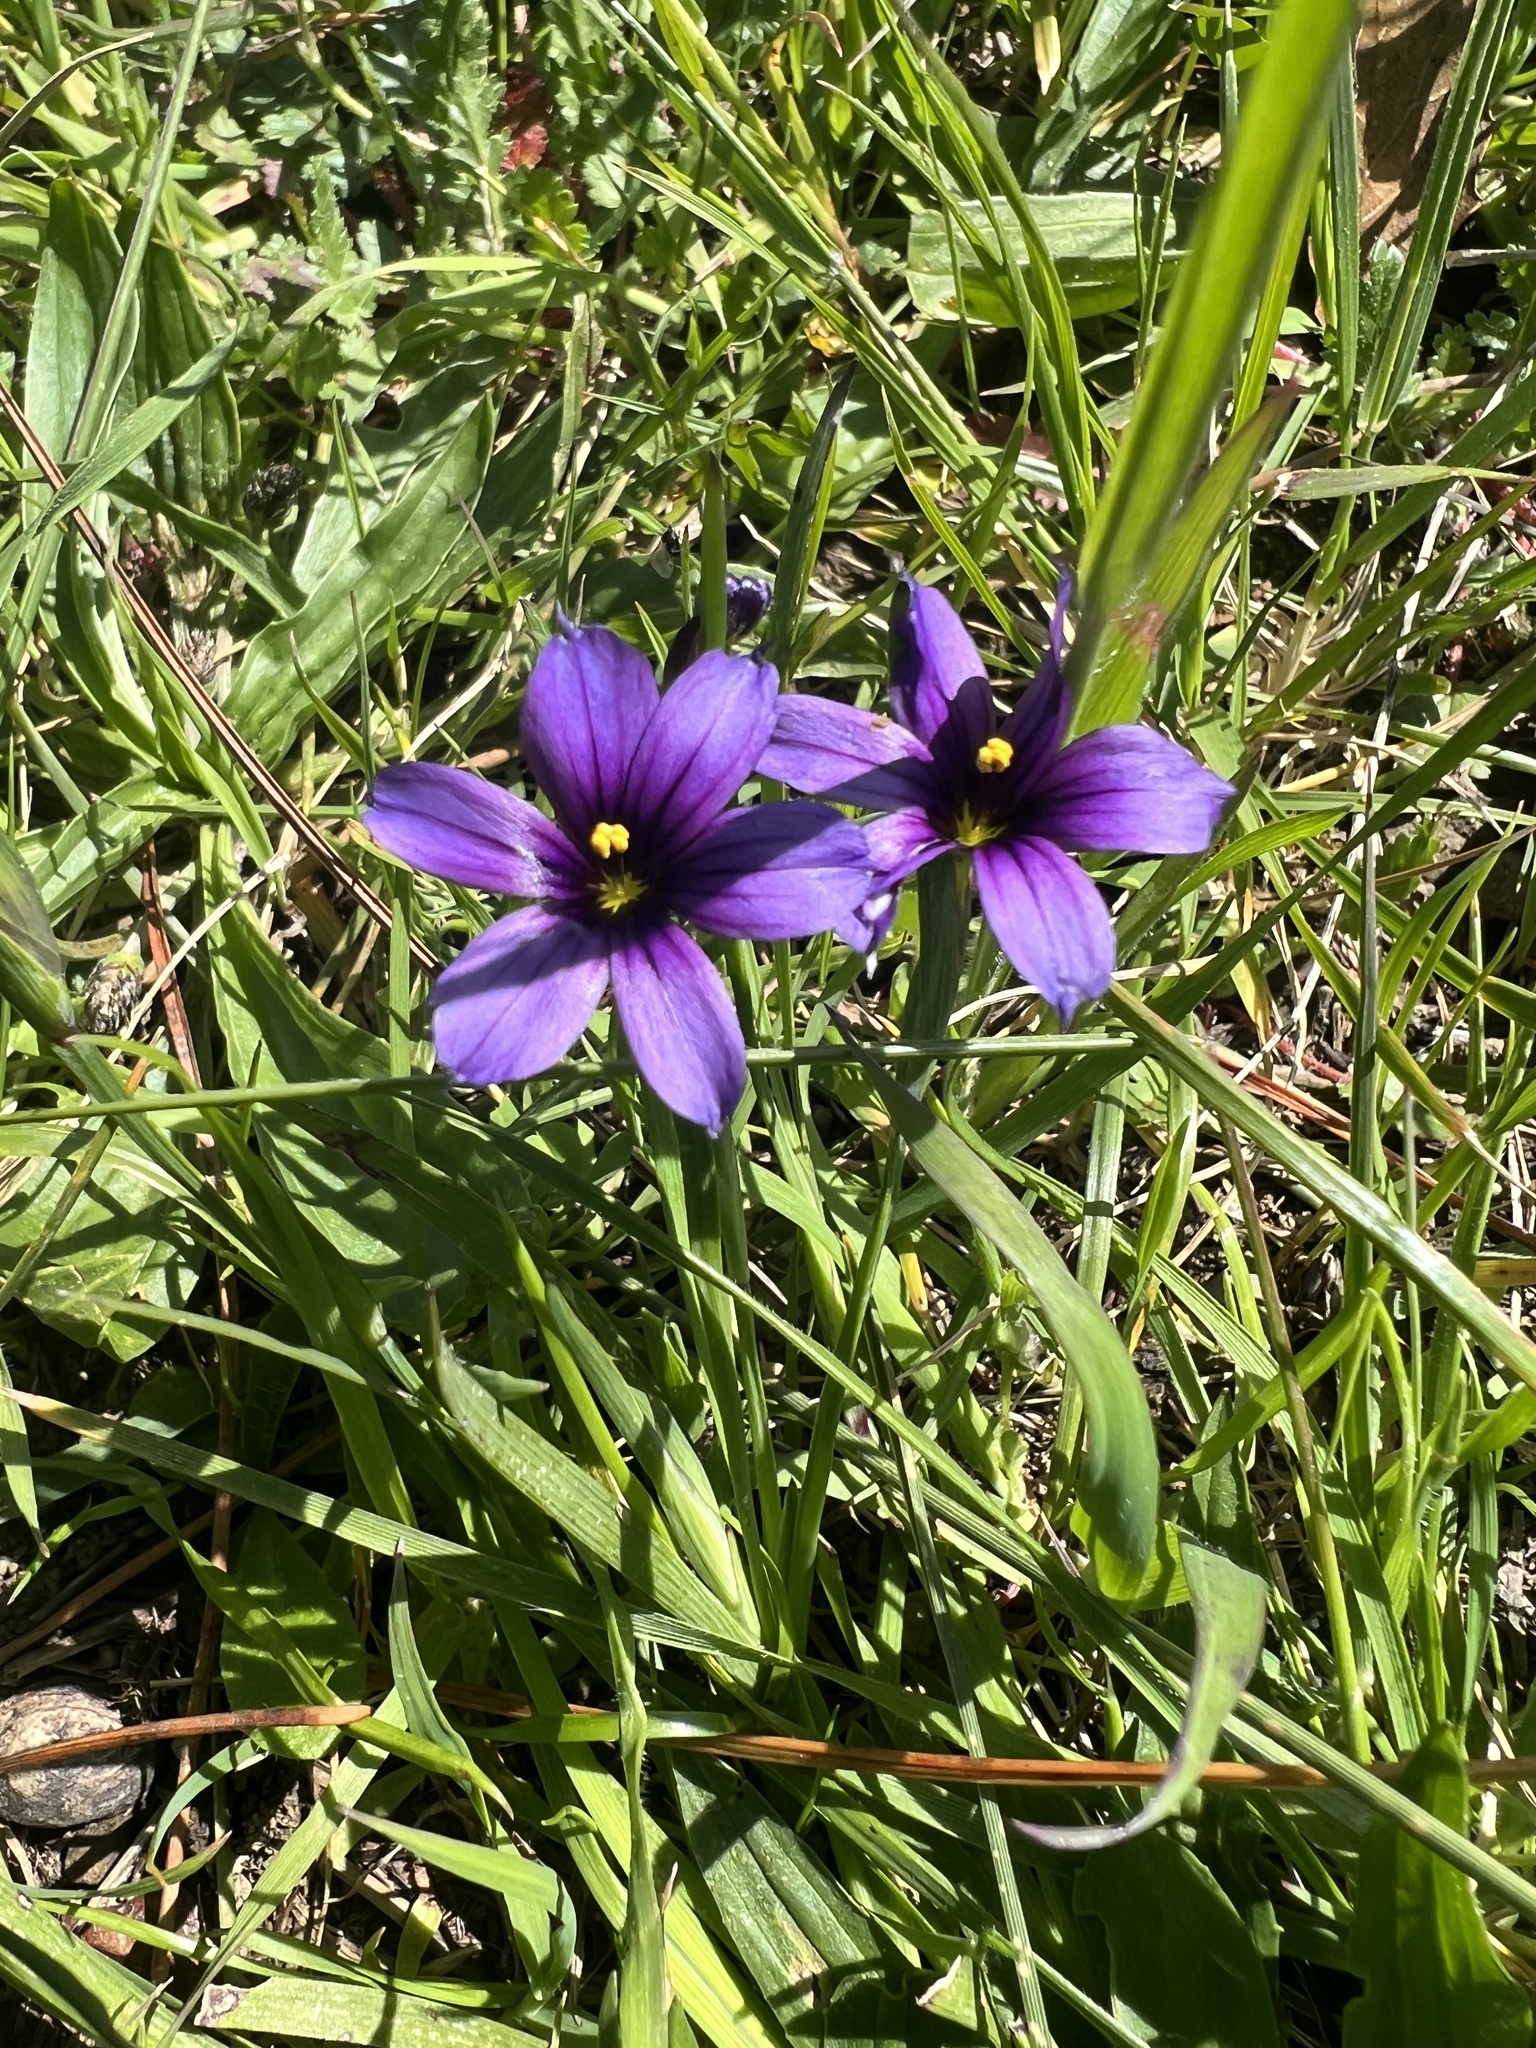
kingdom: Plantae
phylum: Tracheophyta
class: Liliopsida
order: Asparagales
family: Iridaceae
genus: Sisyrinchium
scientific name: Sisyrinchium bellum
